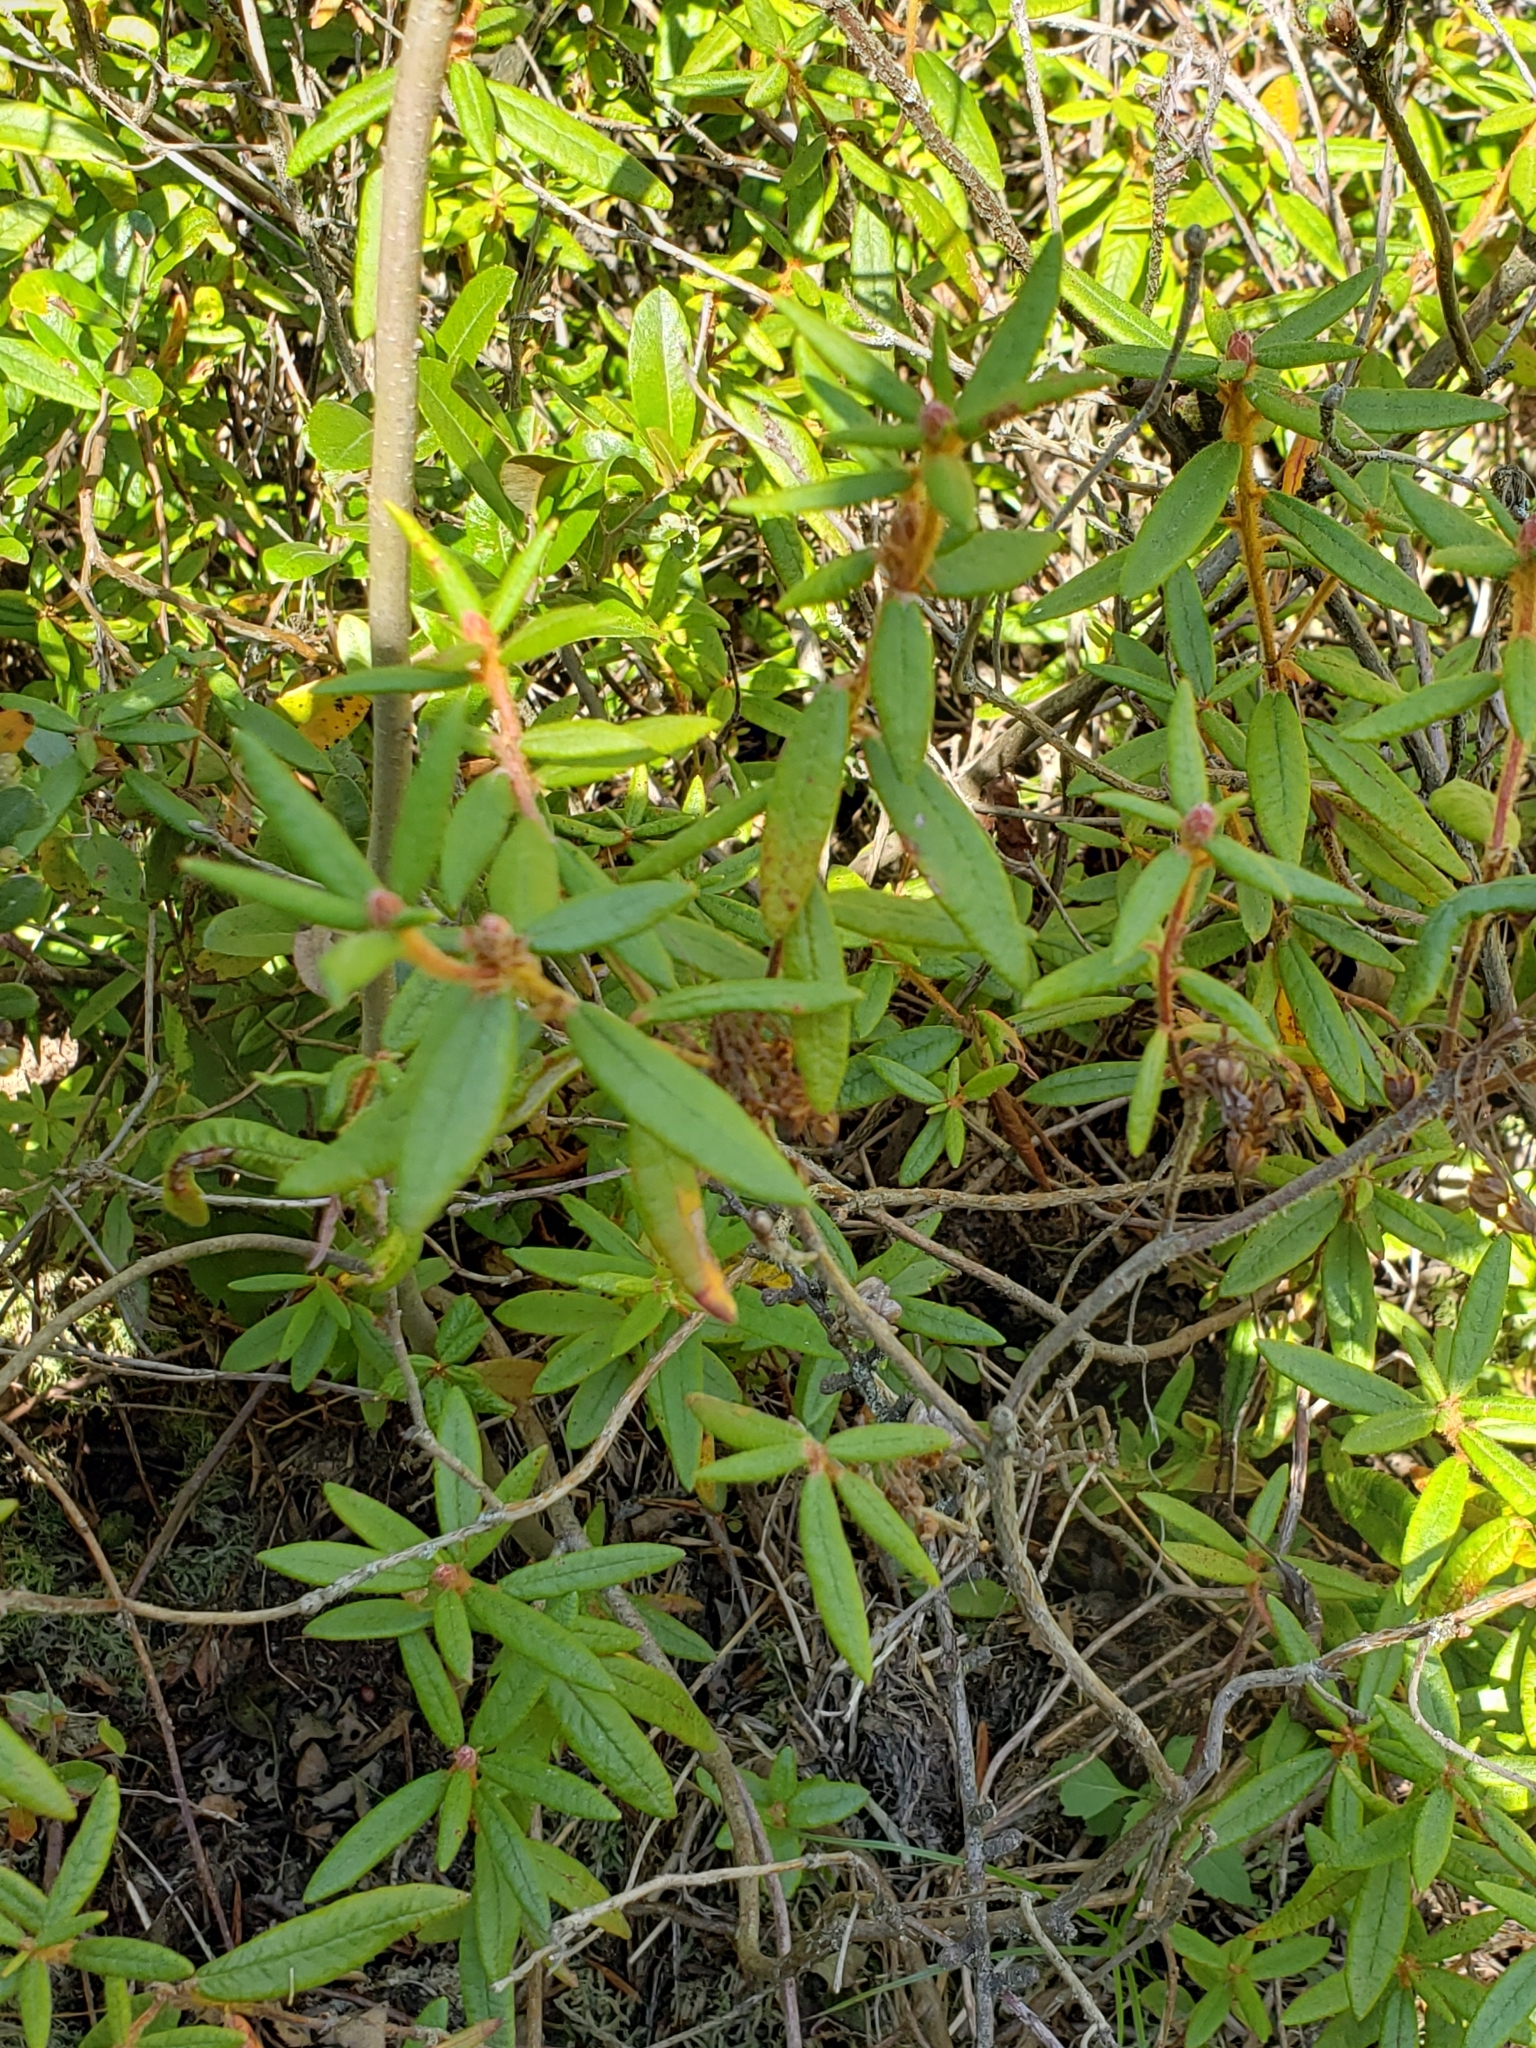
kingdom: Plantae
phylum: Tracheophyta
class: Magnoliopsida
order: Ericales
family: Ericaceae
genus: Rhododendron
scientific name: Rhododendron groenlandicum
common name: Bog labrador tea
